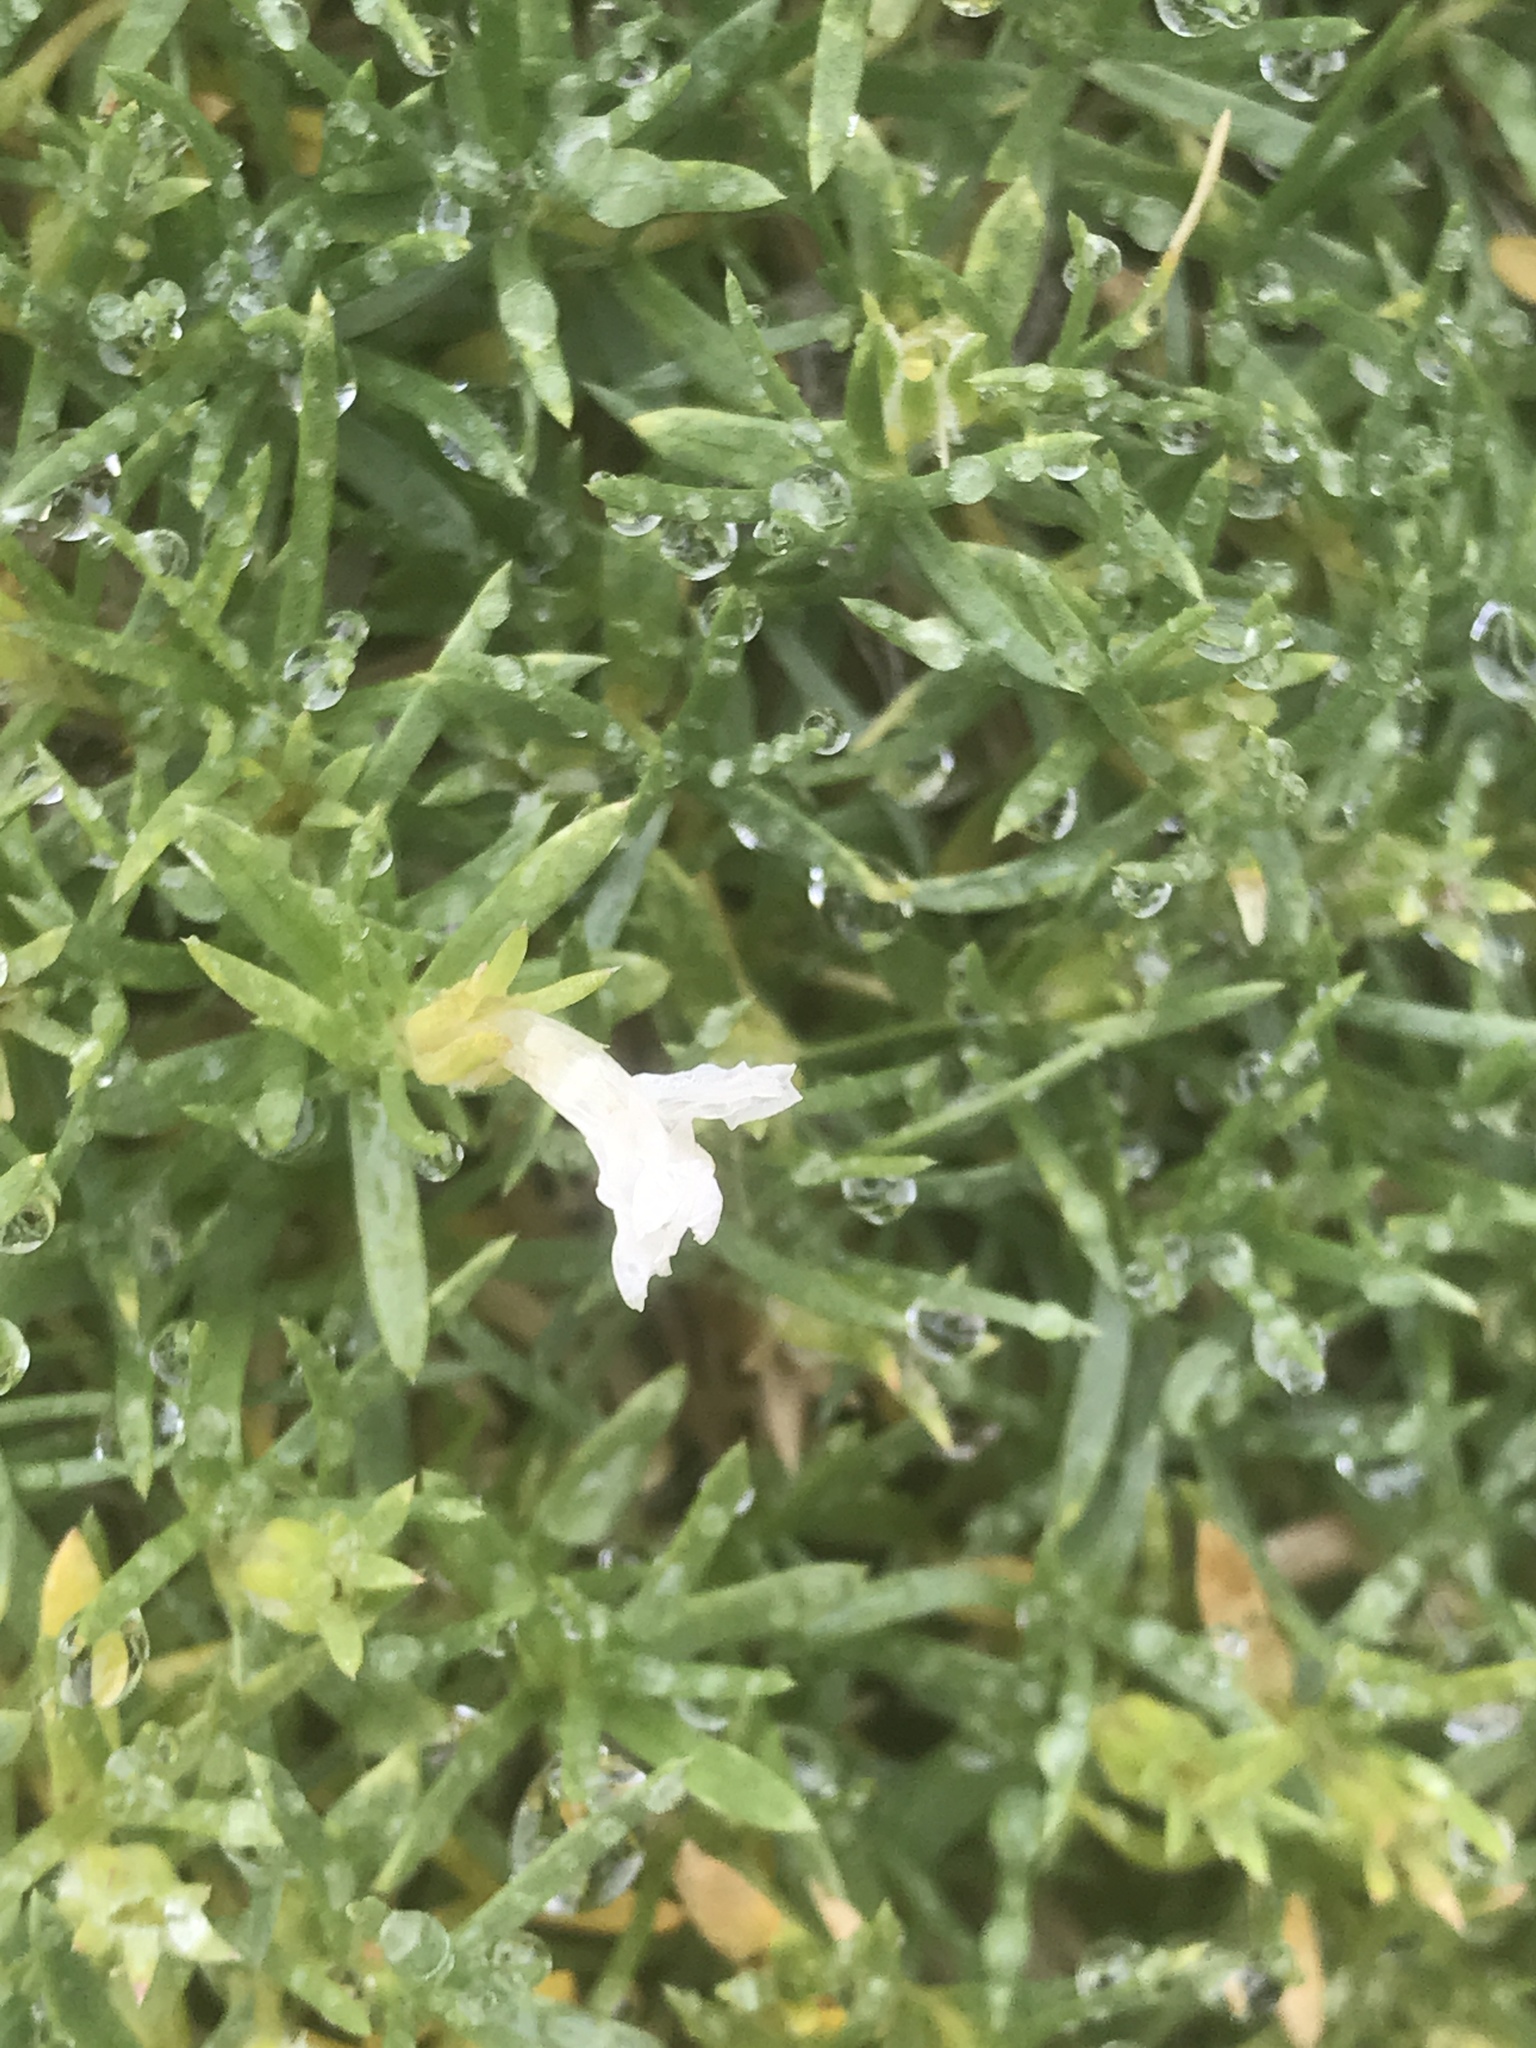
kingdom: Plantae
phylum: Tracheophyta
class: Magnoliopsida
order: Ericales
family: Polemoniaceae
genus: Phlox
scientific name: Phlox diffusa
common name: Mat phlox
